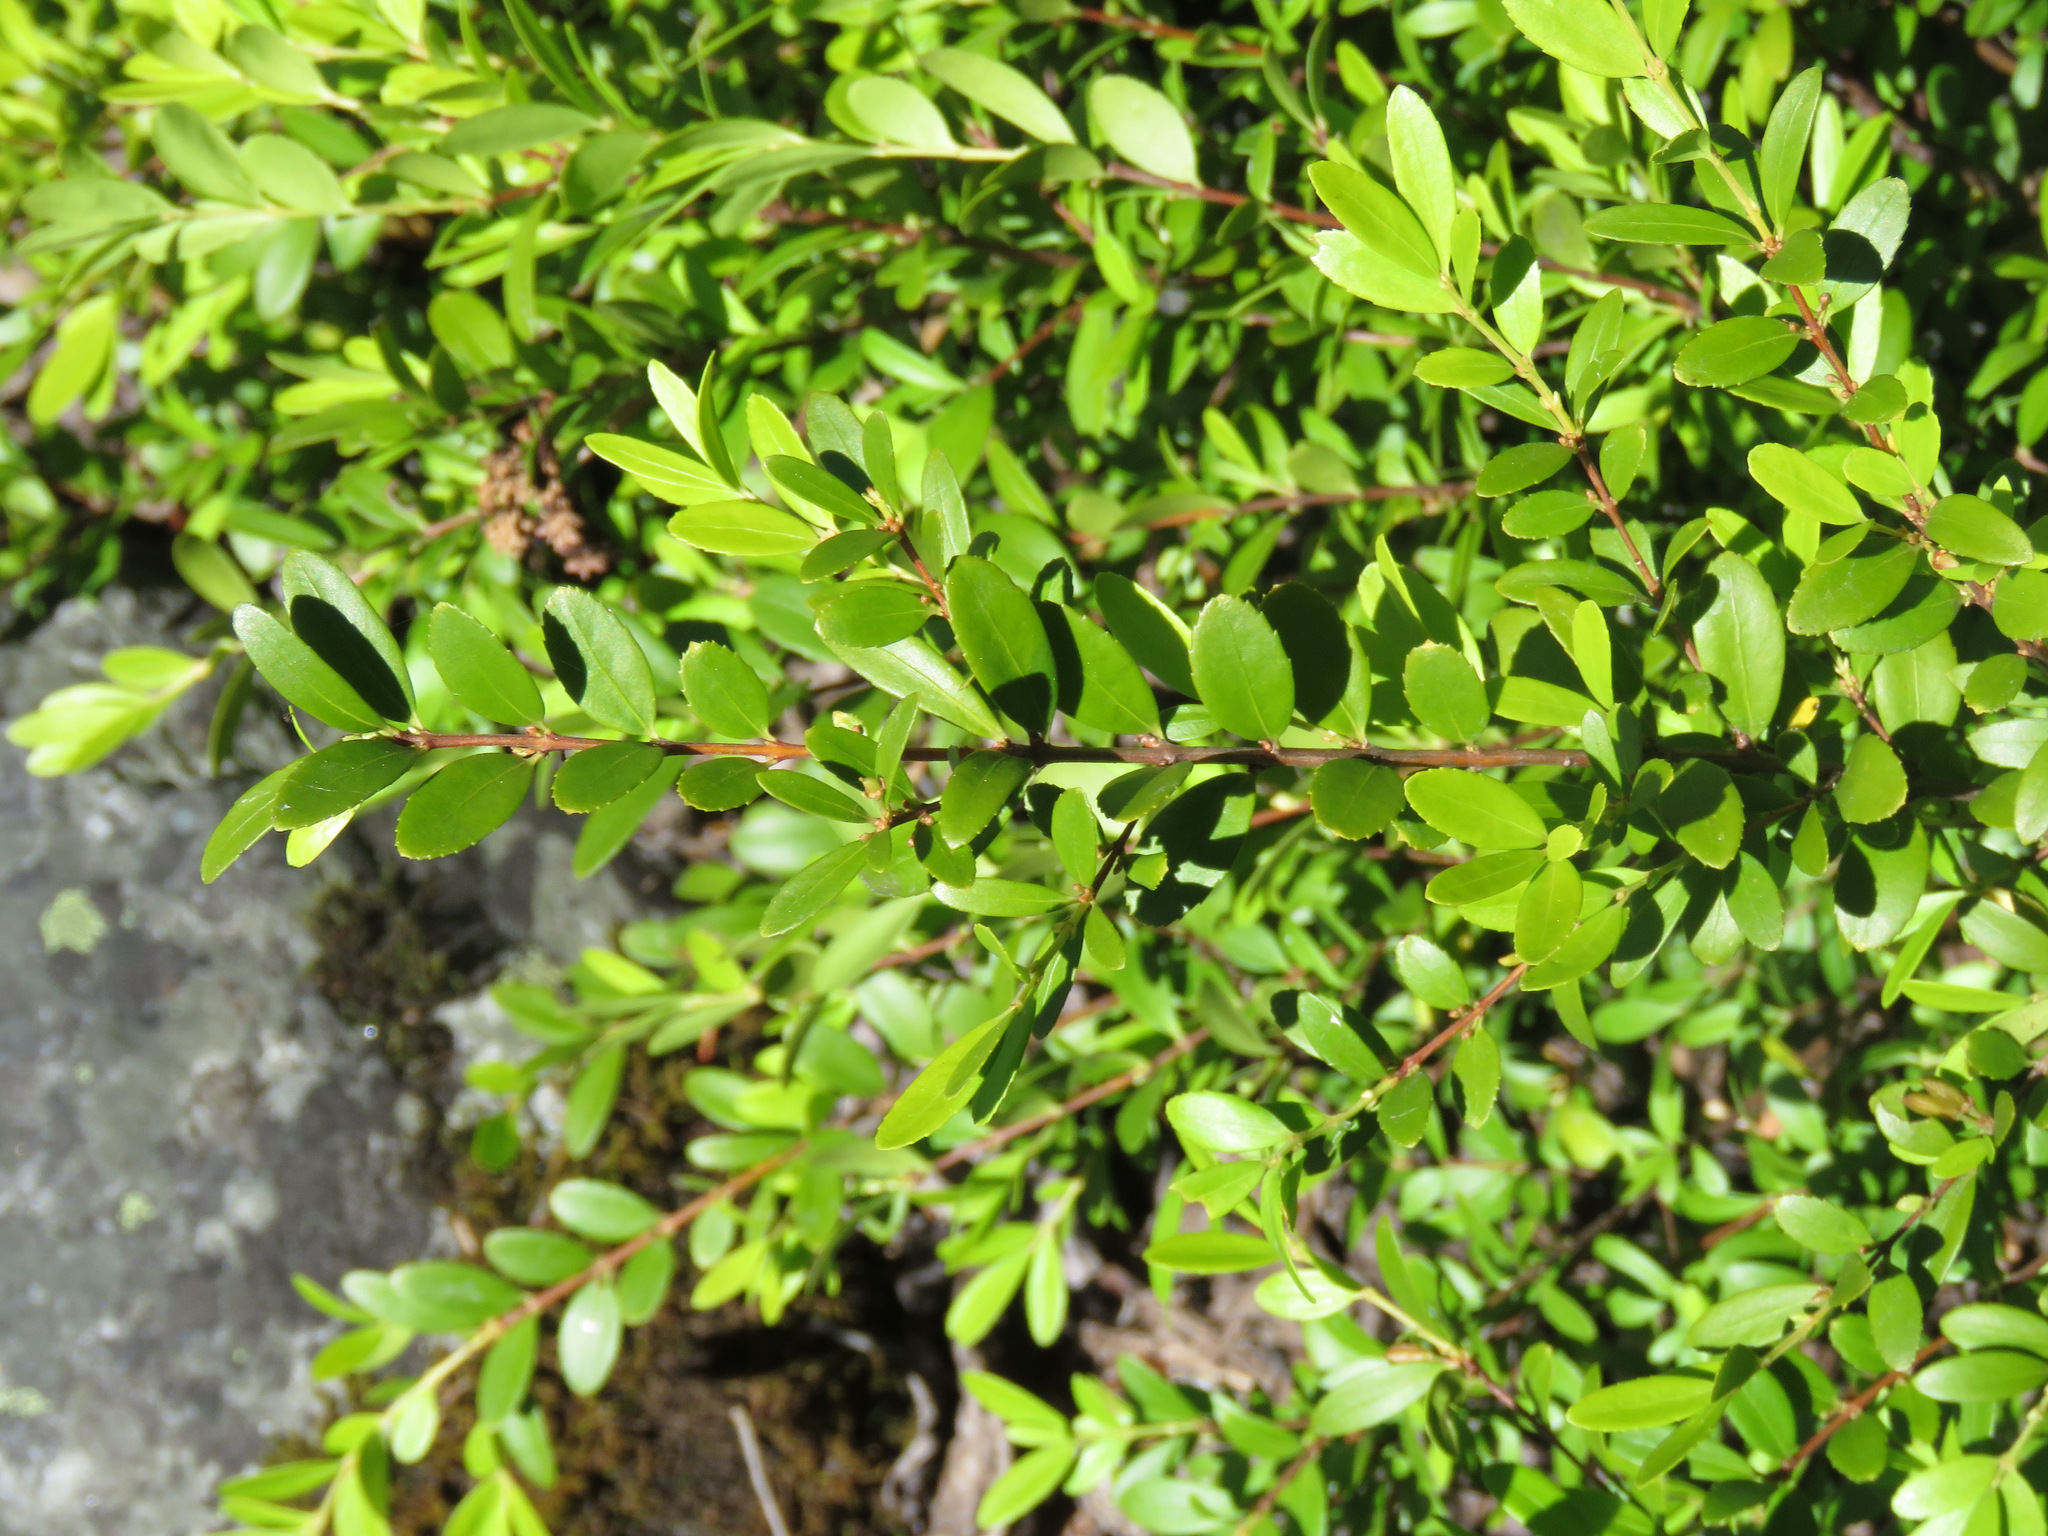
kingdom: Plantae
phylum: Tracheophyta
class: Magnoliopsida
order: Celastrales
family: Celastraceae
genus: Paxistima
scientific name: Paxistima myrsinites
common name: Mountain-lover
